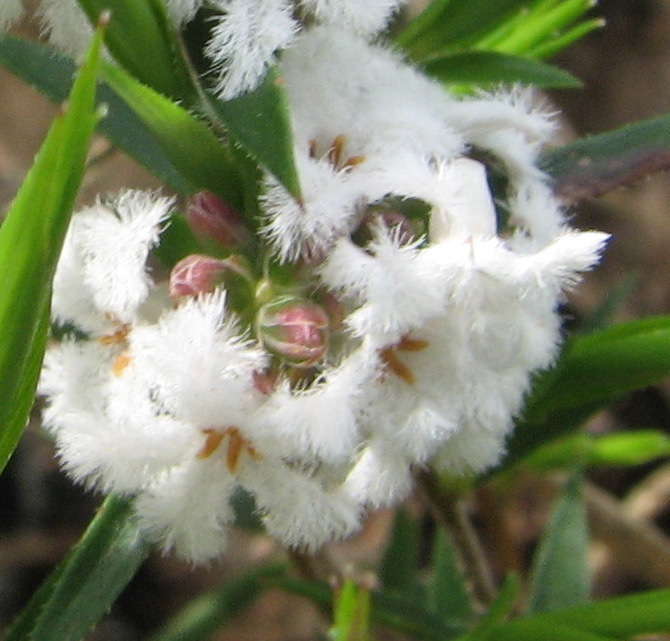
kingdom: Plantae
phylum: Tracheophyta
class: Magnoliopsida
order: Ericales
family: Ericaceae
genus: Leucopogon
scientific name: Leucopogon virgatus
